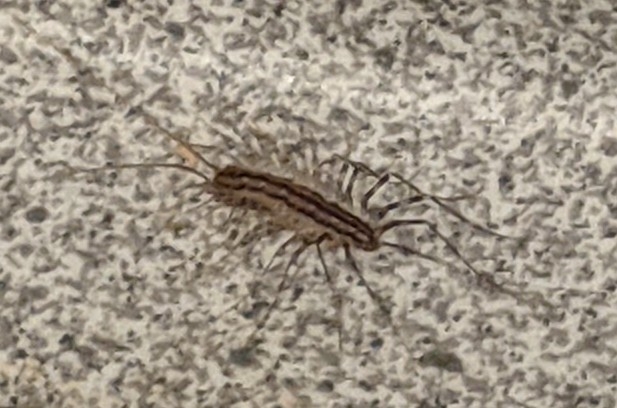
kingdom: Animalia
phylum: Arthropoda
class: Chilopoda
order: Scutigeromorpha
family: Scutigeridae
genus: Scutigera
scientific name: Scutigera coleoptrata
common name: House centipede
